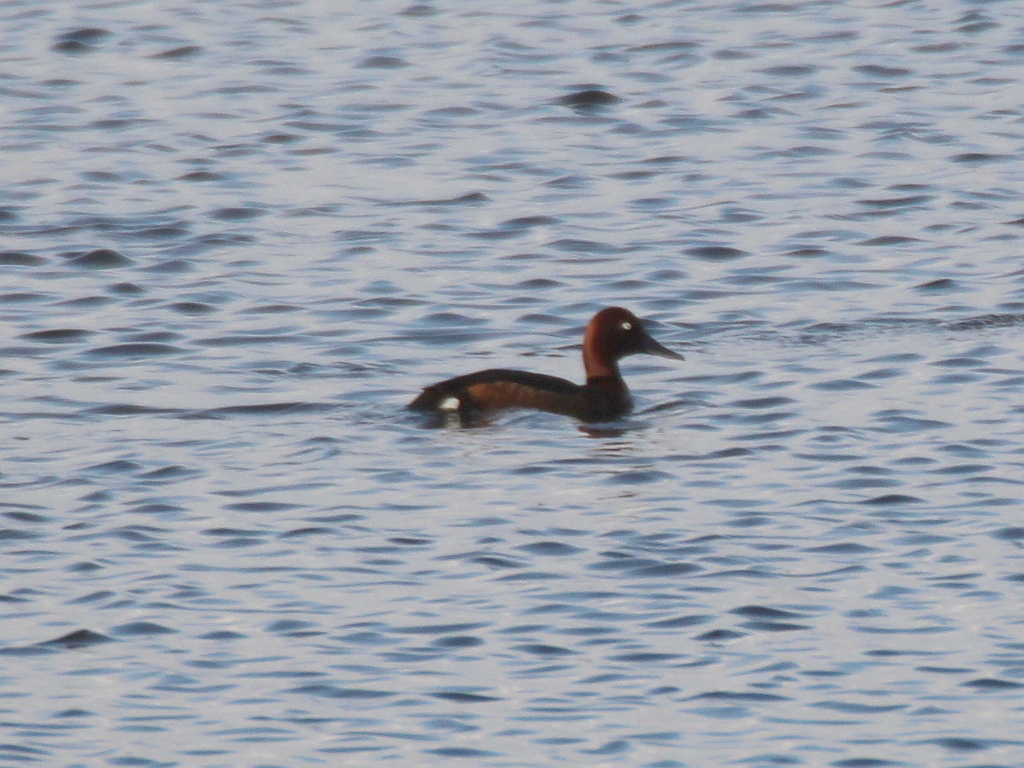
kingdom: Animalia
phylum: Chordata
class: Aves
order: Anseriformes
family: Anatidae
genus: Aythya
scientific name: Aythya nyroca
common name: Ferruginous duck
